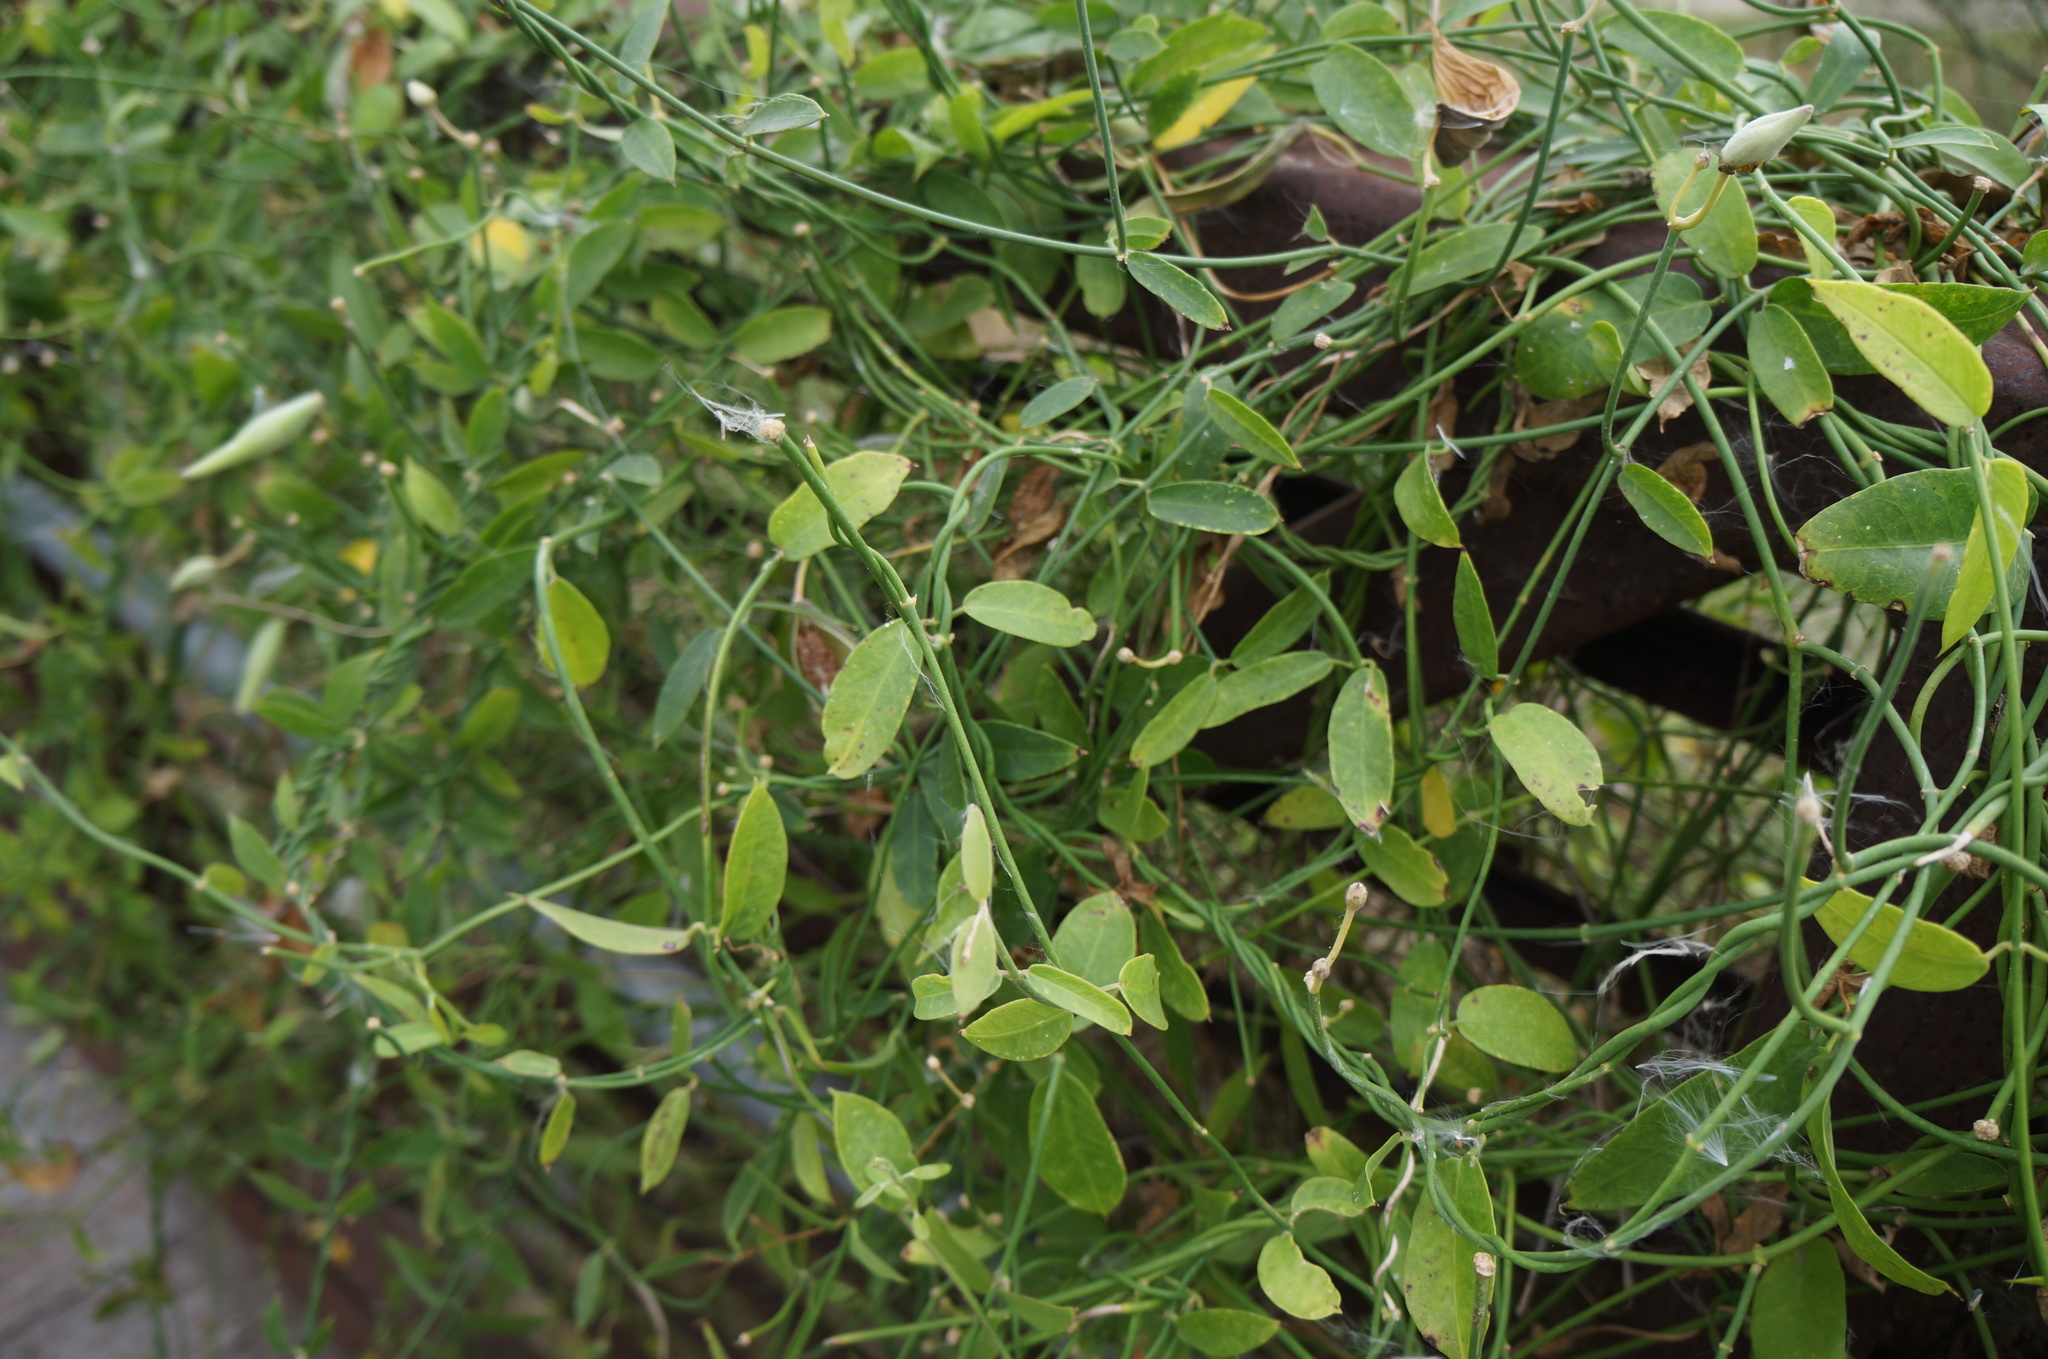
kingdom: Plantae
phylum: Tracheophyta
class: Magnoliopsida
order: Gentianales
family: Apocynaceae
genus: Funastrum
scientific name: Funastrum clausum
